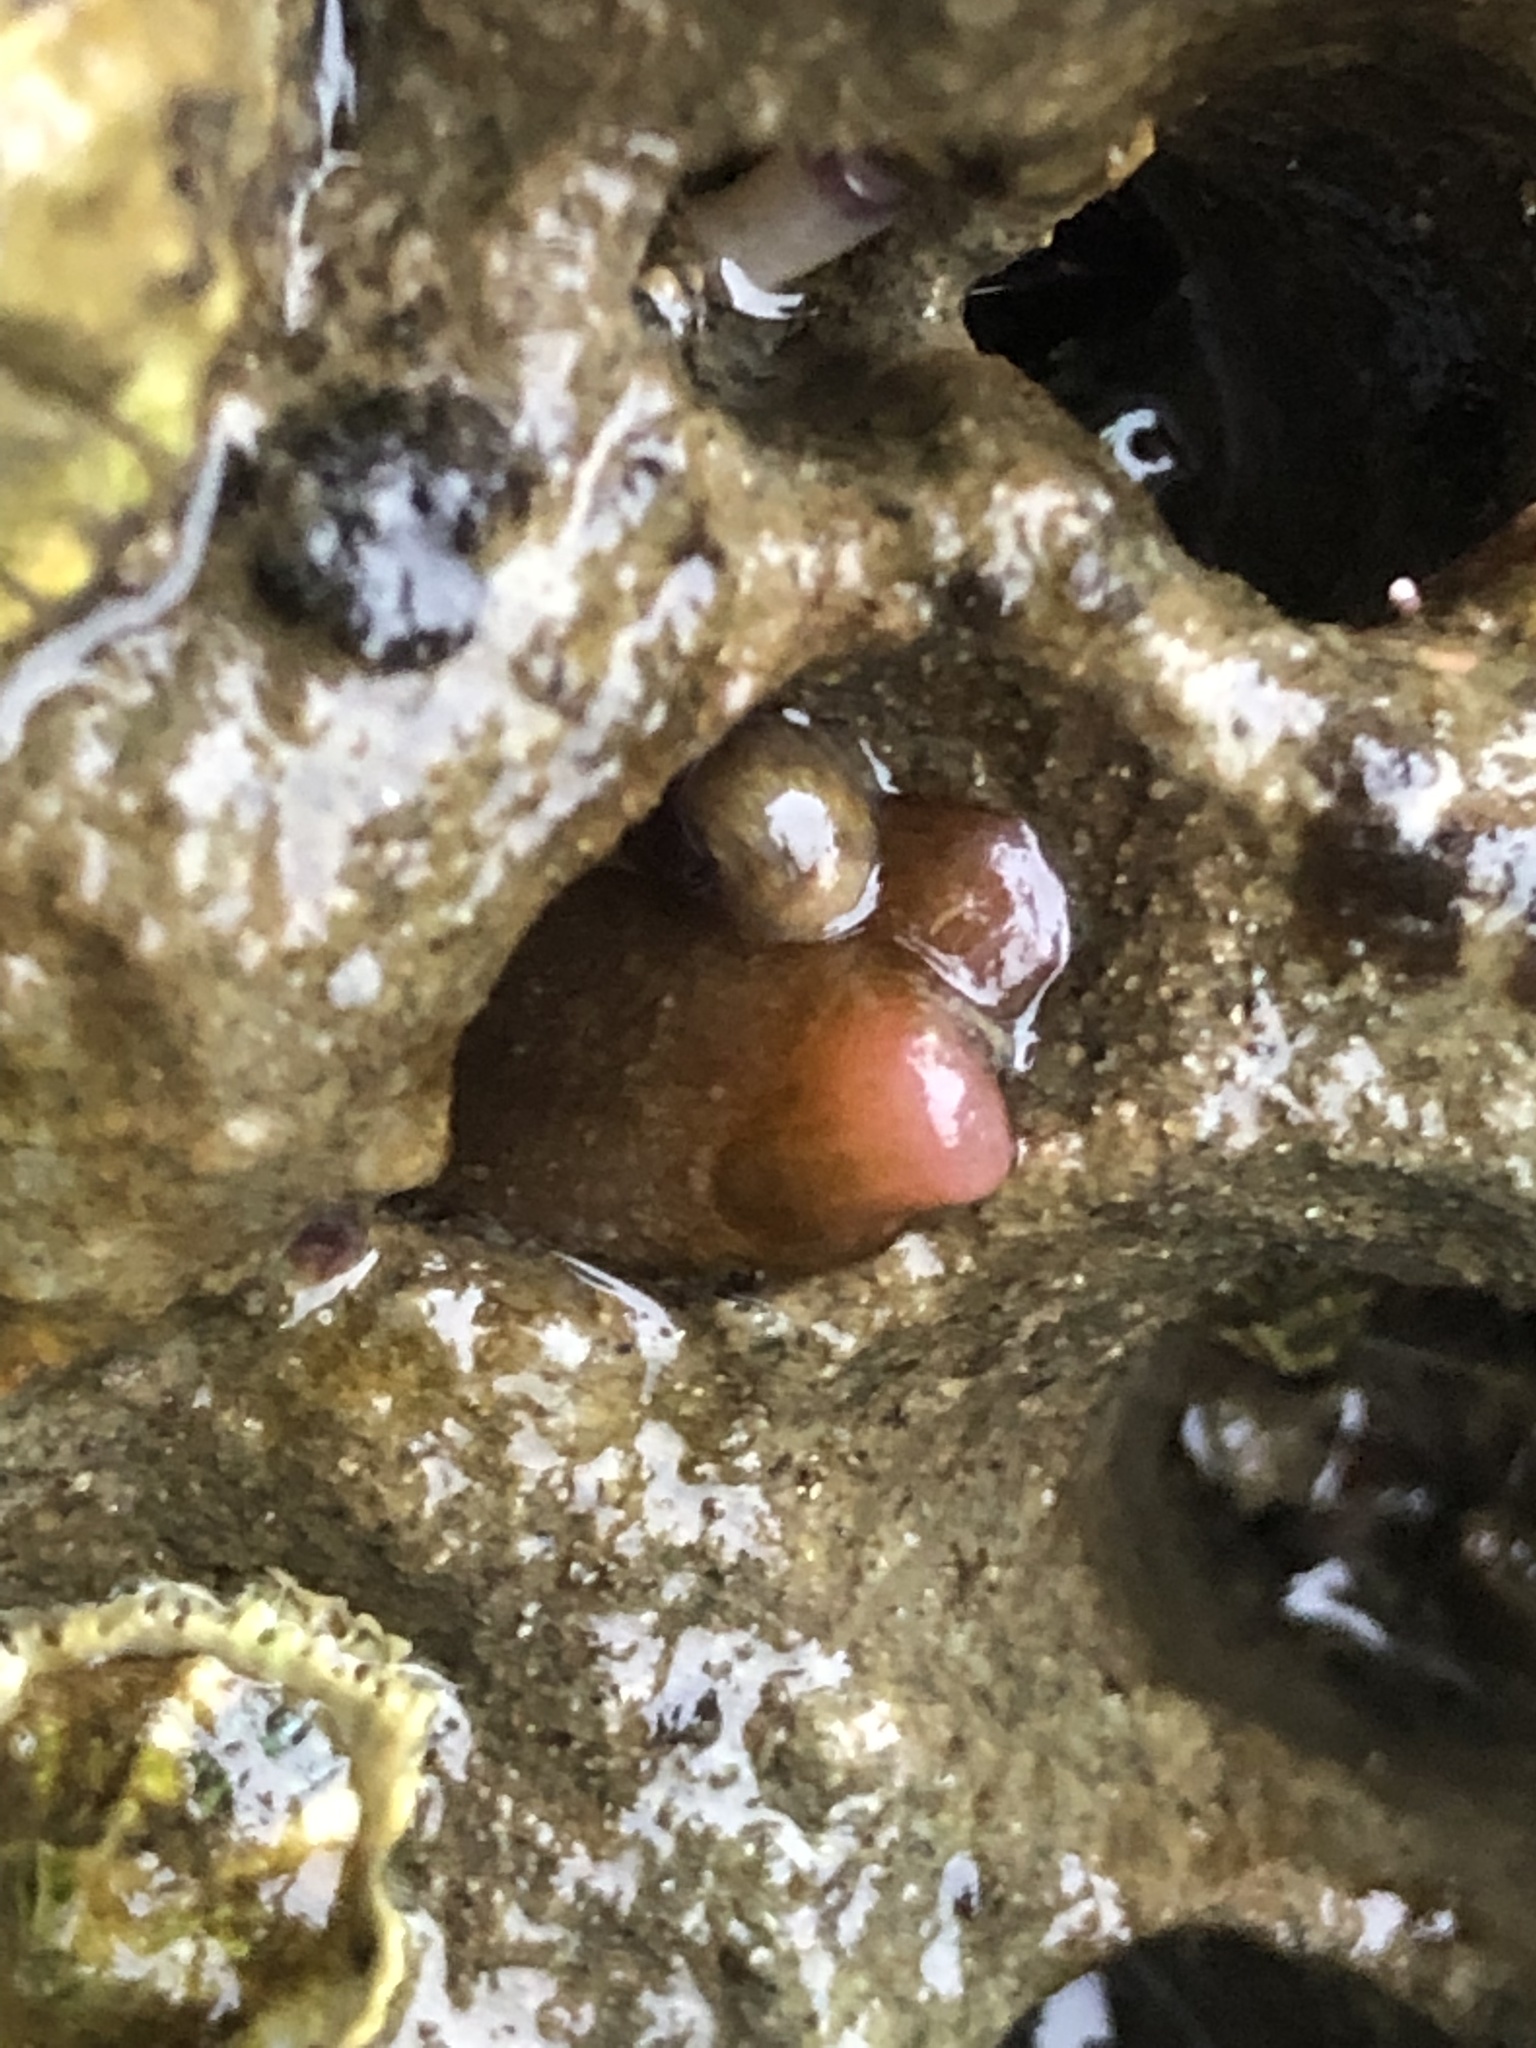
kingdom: Animalia
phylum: Mollusca
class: Bivalvia
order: Adapedonta
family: Hiatellidae
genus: Hiatella
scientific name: Hiatella arctica
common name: Arctic hiatella
